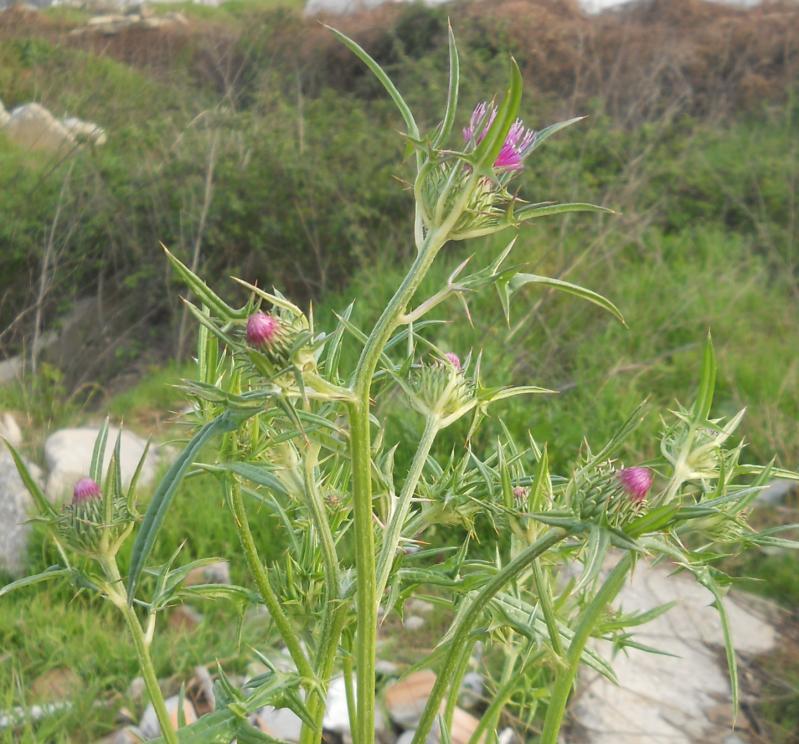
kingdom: Plantae
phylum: Tracheophyta
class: Magnoliopsida
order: Asterales
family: Asteraceae
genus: Notobasis
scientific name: Notobasis syriaca
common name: Syrian thistle
